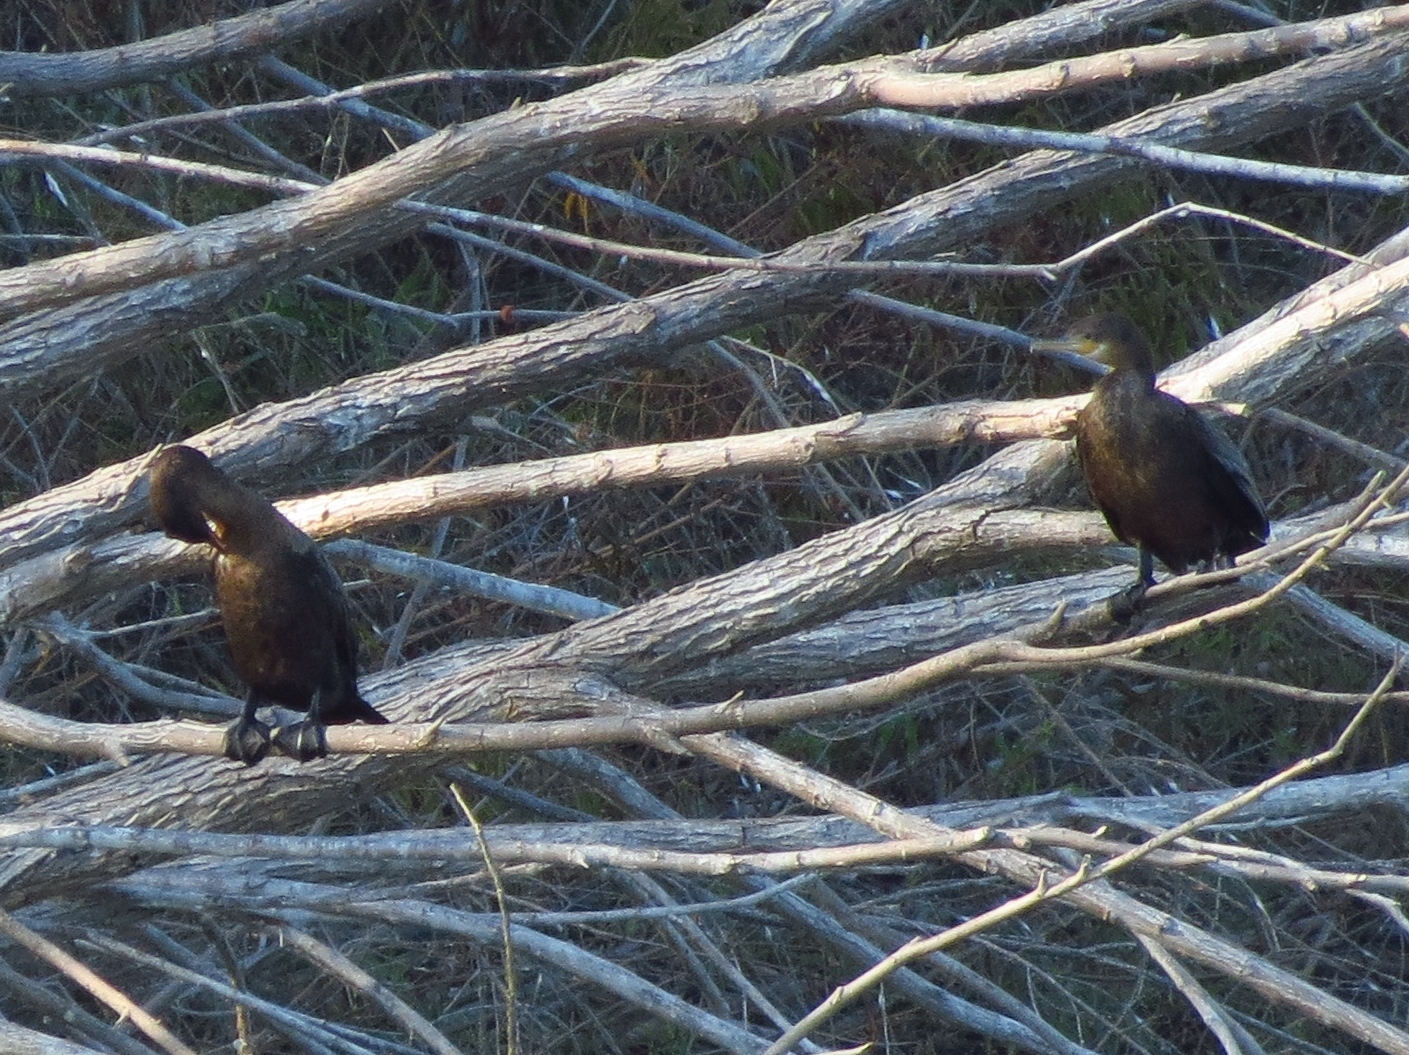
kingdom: Animalia
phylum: Chordata
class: Aves
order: Suliformes
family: Phalacrocoracidae
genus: Phalacrocorax
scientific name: Phalacrocorax brasilianus
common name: Neotropic cormorant
